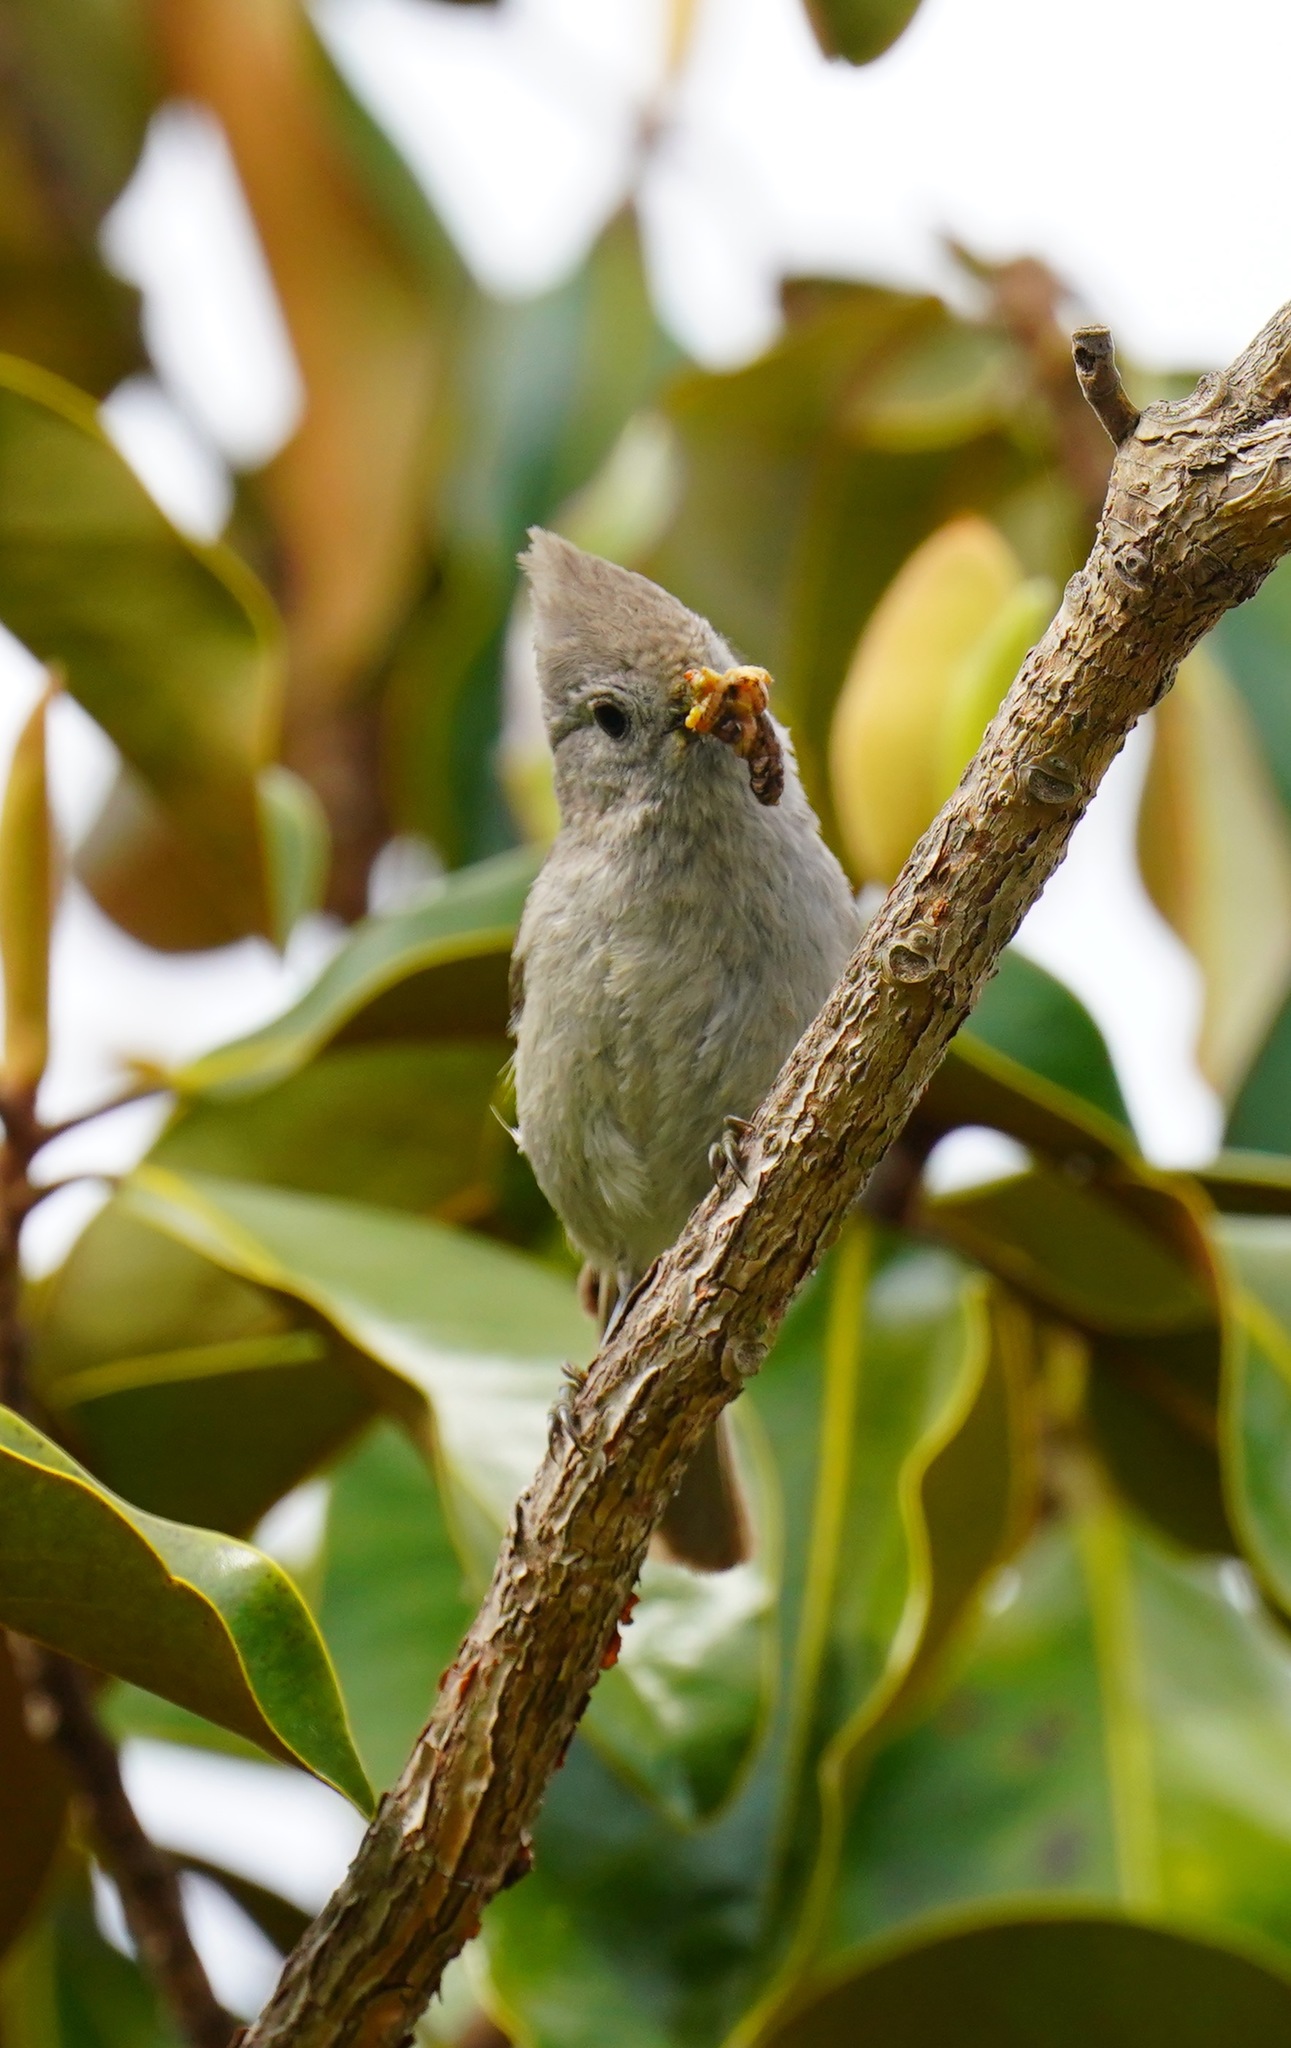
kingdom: Animalia
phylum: Chordata
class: Aves
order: Passeriformes
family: Paridae
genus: Baeolophus
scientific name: Baeolophus inornatus
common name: Oak titmouse
